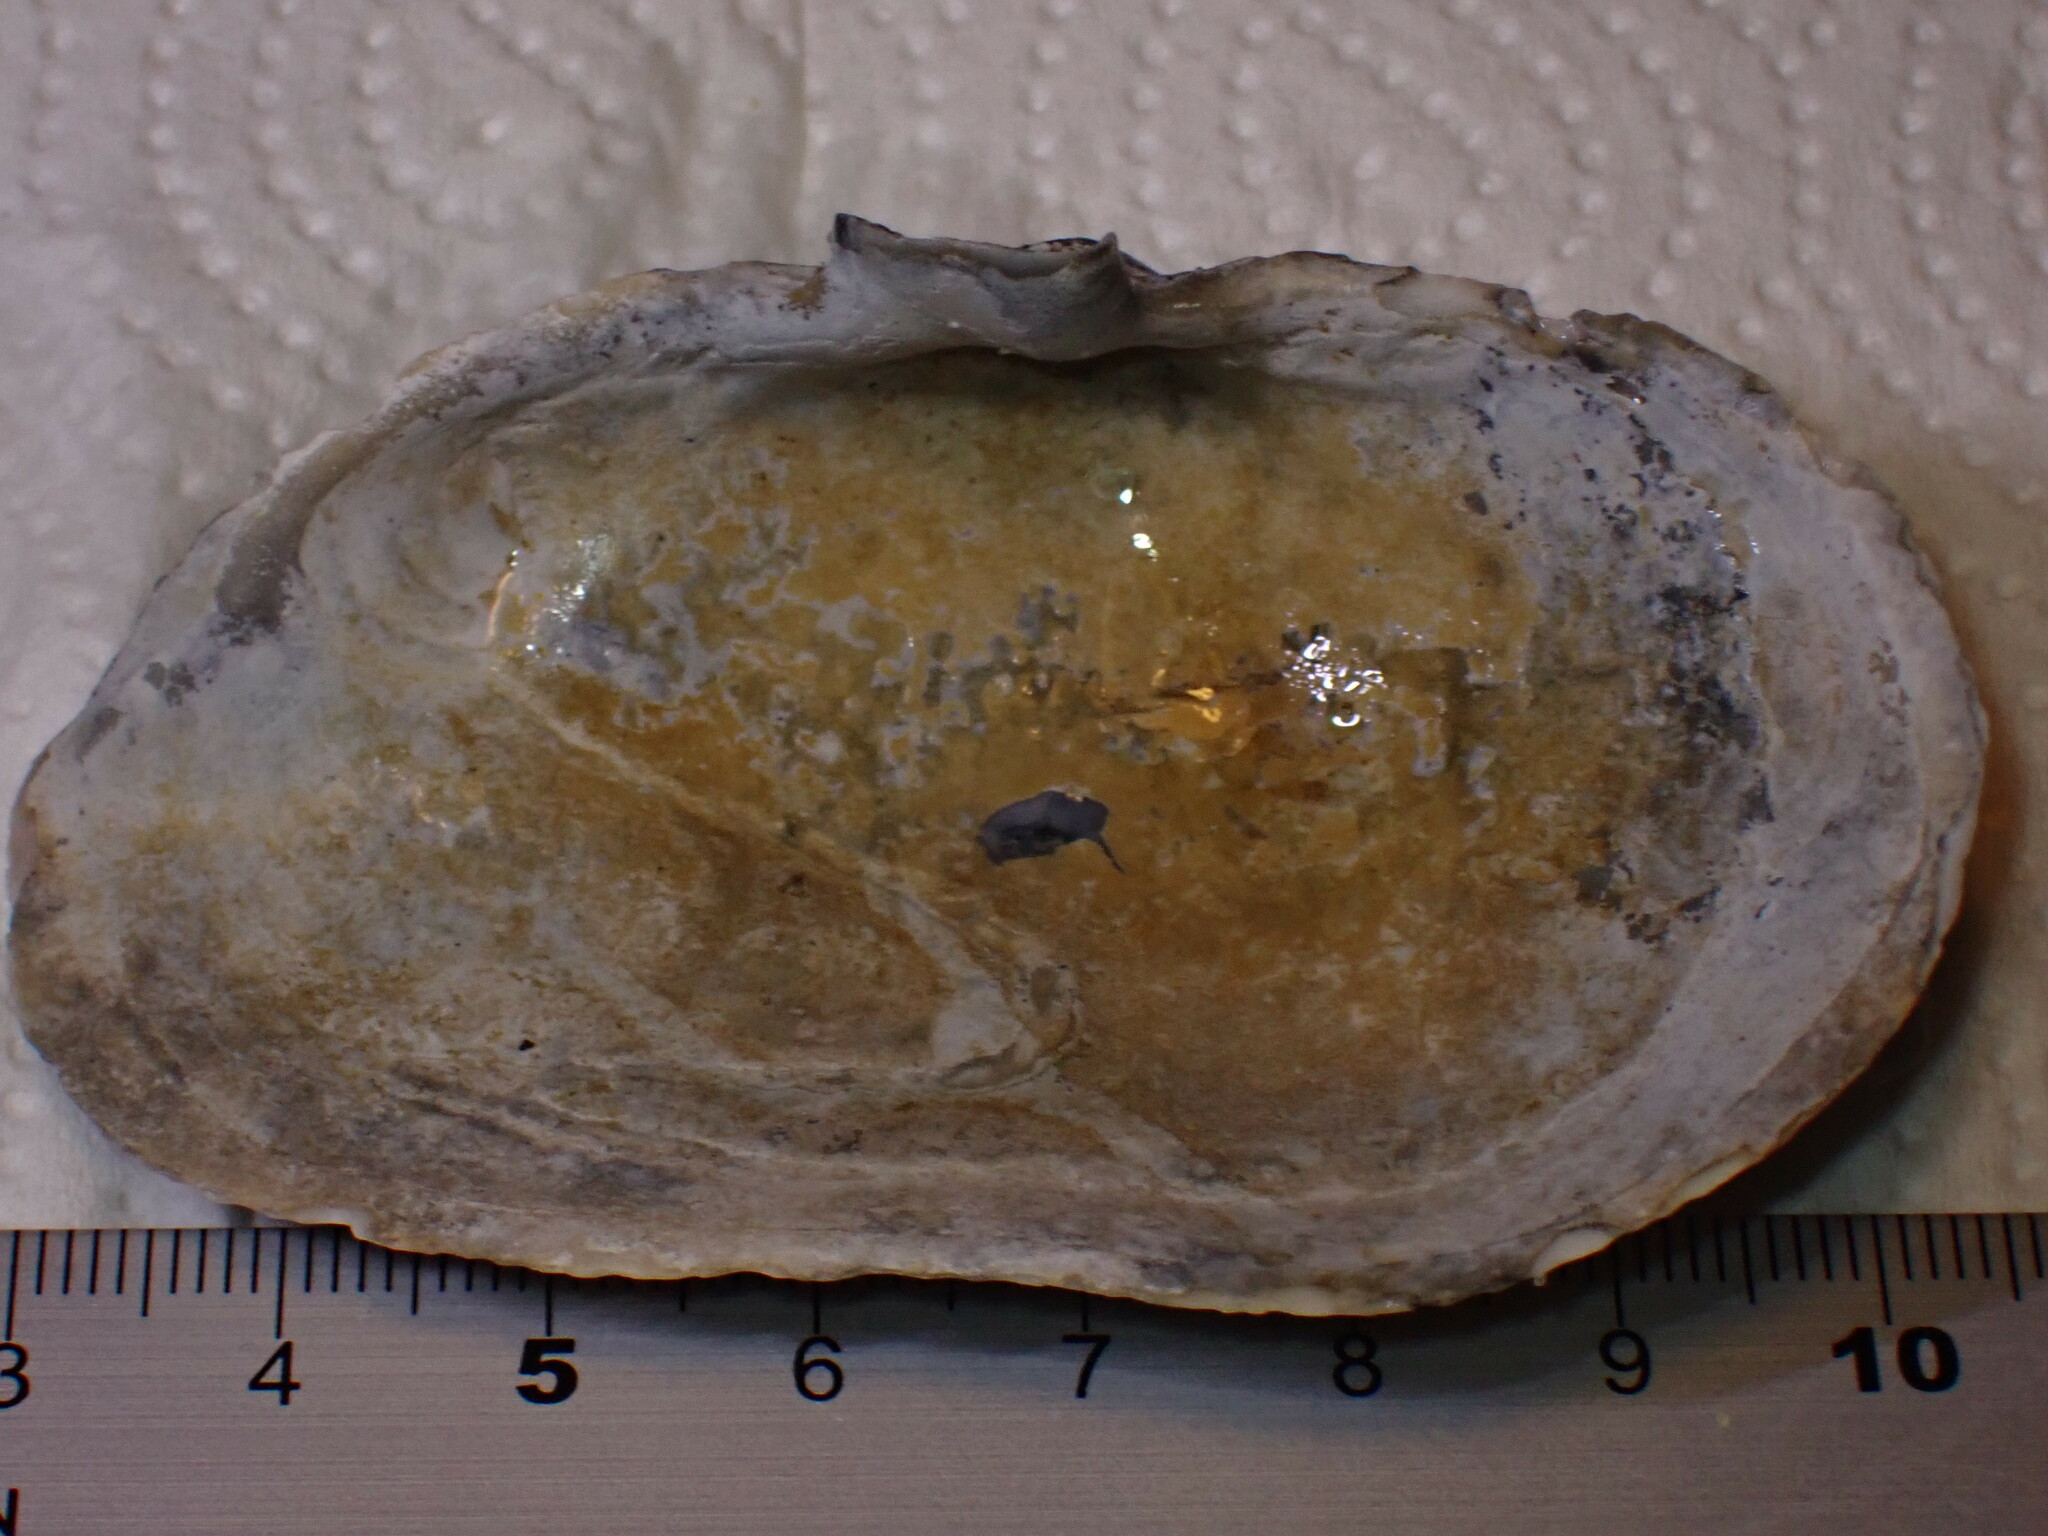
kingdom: Animalia
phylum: Mollusca
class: Bivalvia
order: Myida
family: Myidae
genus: Mya
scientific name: Mya arenaria
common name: Soft-shelled clam
